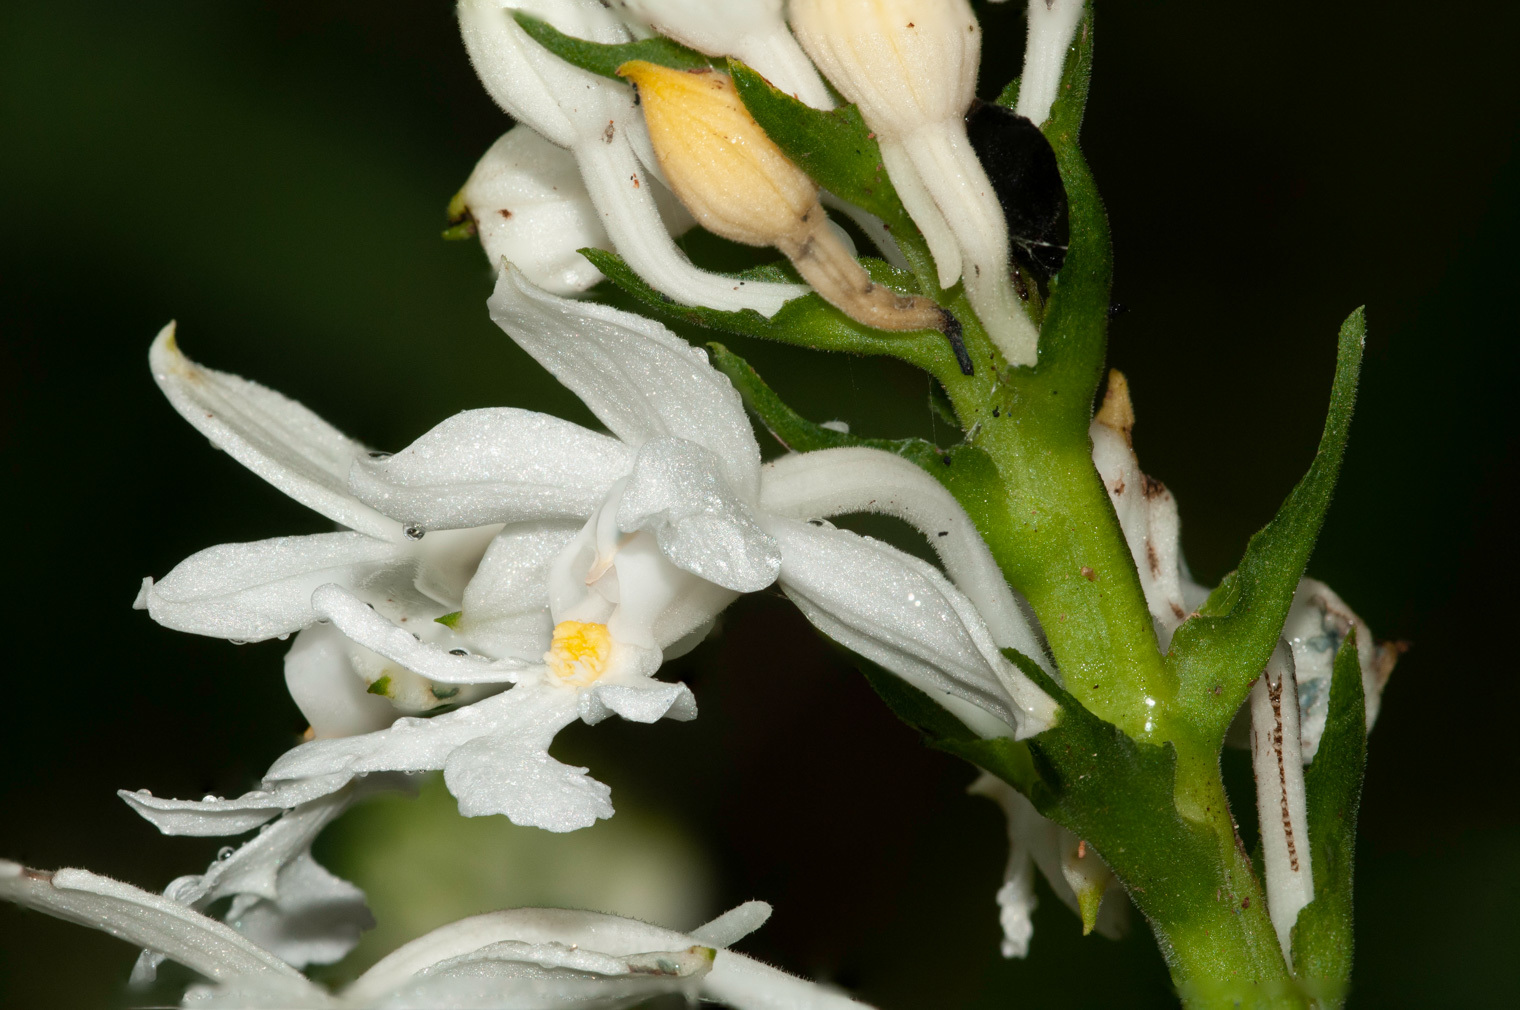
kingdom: Plantae
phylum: Tracheophyta
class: Liliopsida
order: Asparagales
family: Orchidaceae
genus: Calanthe
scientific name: Calanthe triplicata
